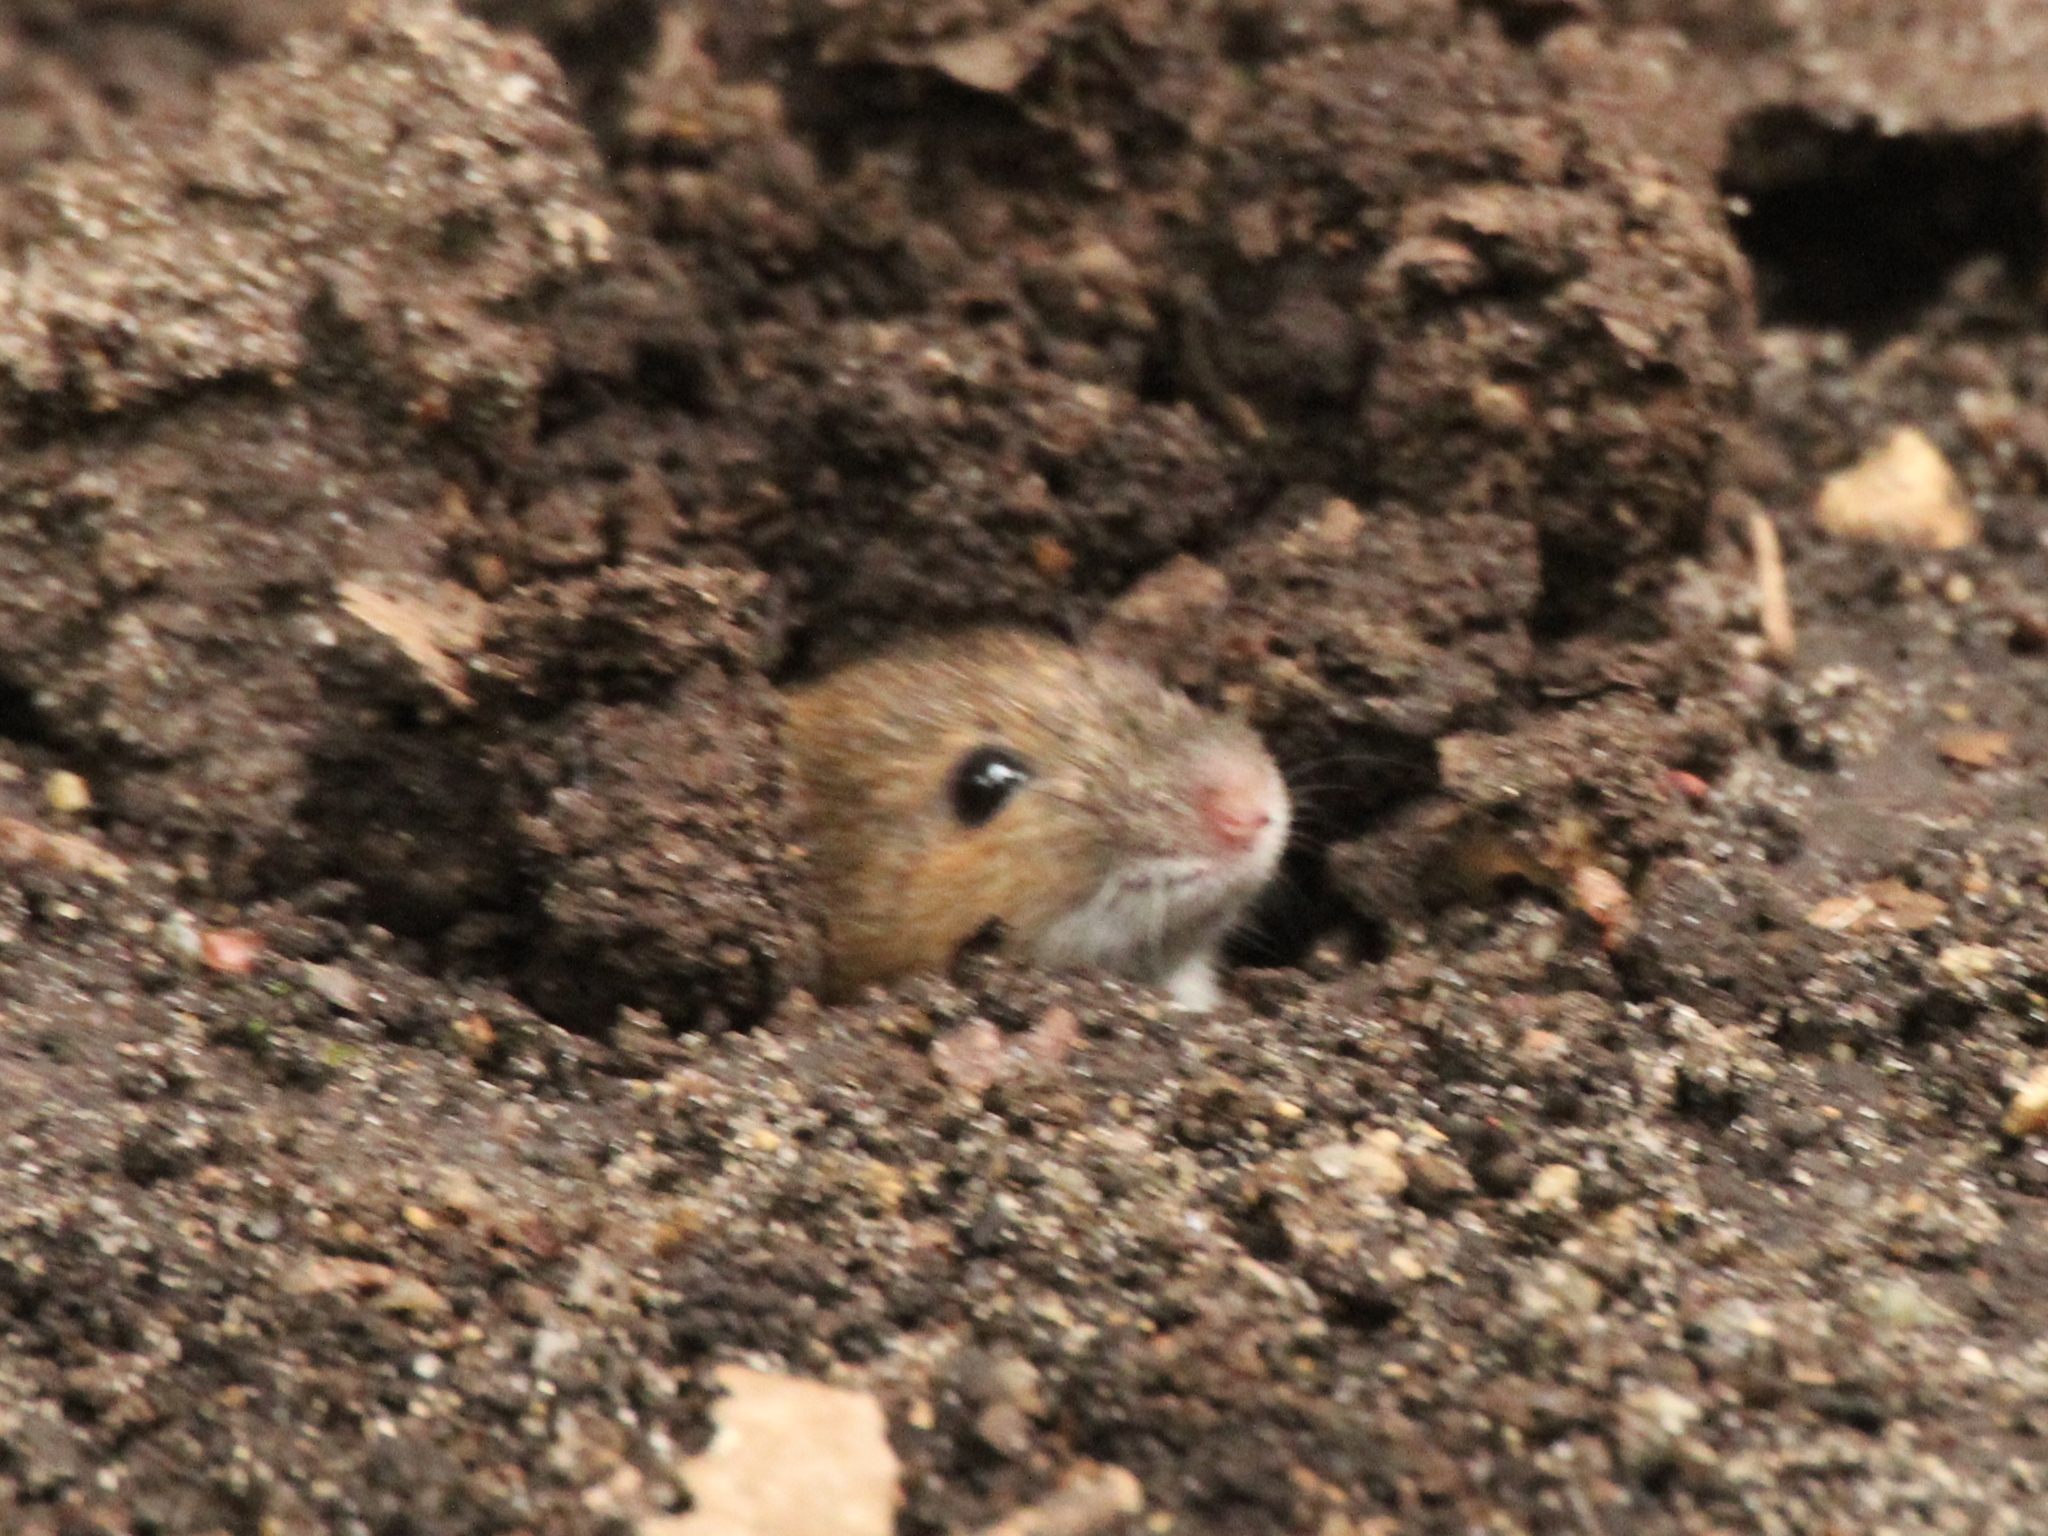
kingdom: Animalia
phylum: Chordata
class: Mammalia
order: Rodentia
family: Muridae
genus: Apodemus
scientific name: Apodemus agrarius
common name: Striped field mouse
